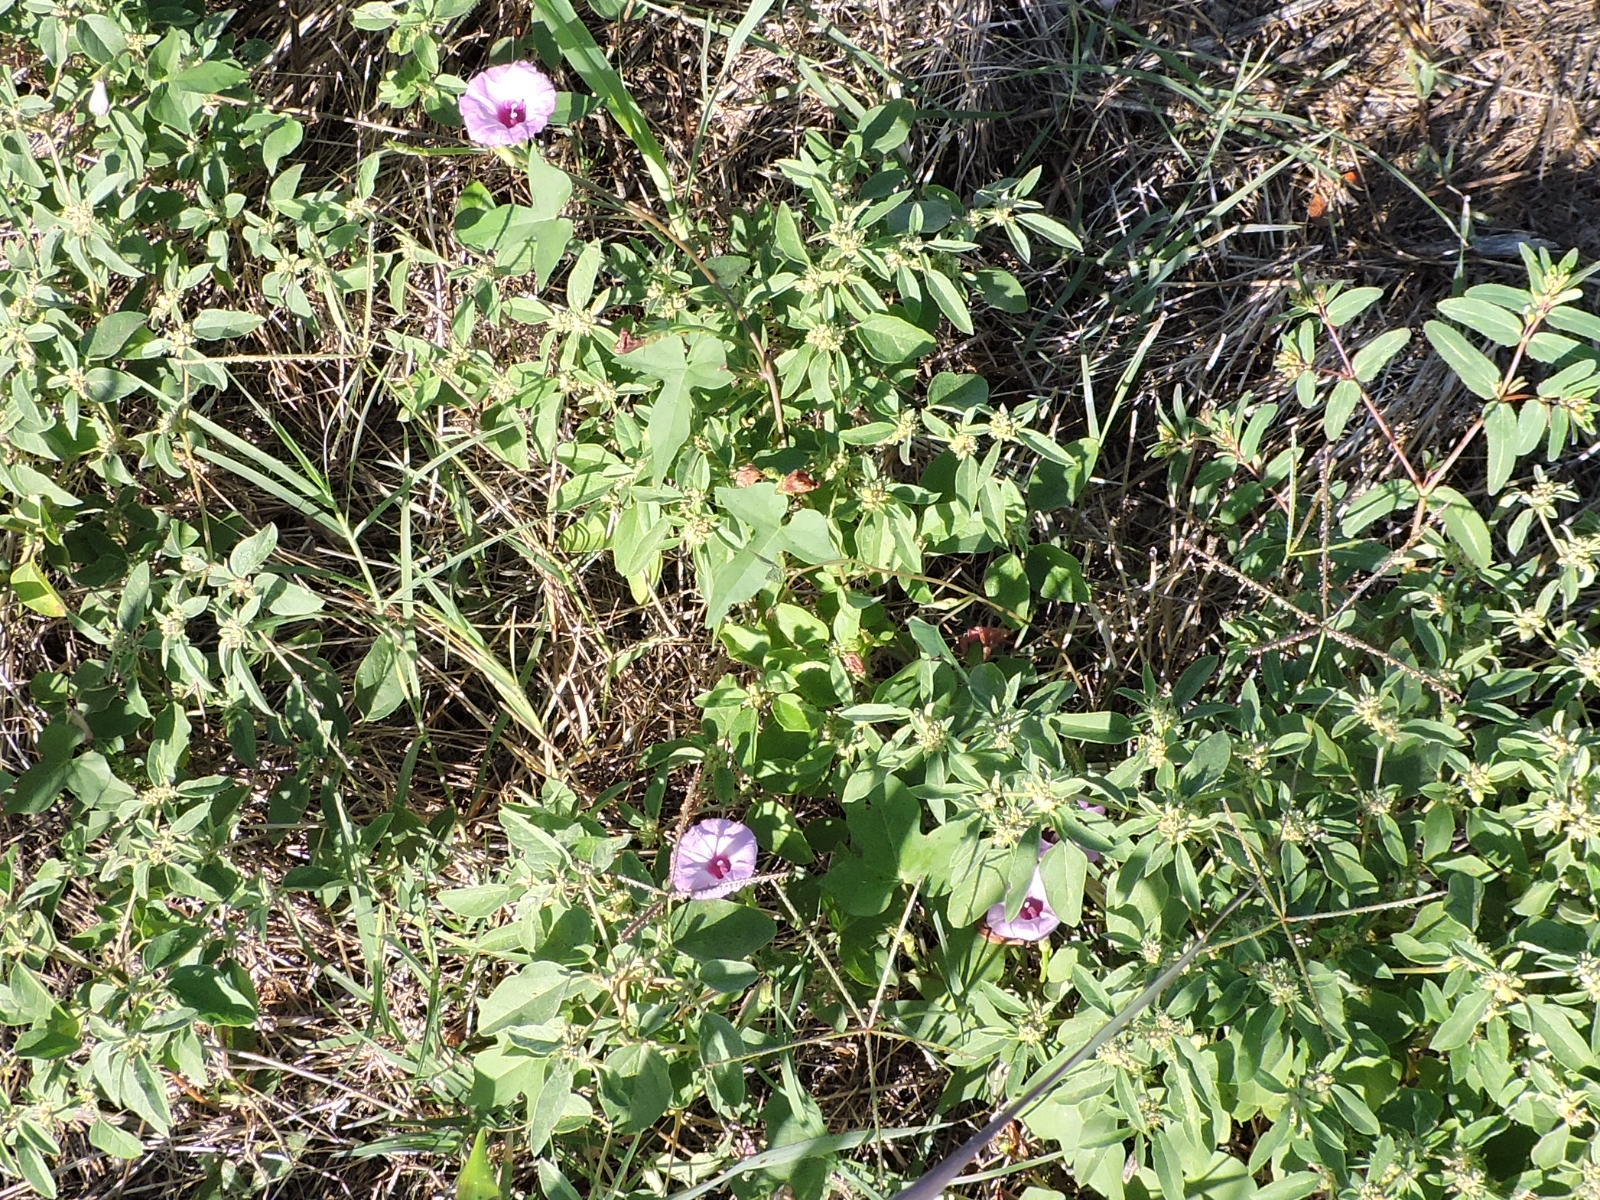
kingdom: Plantae
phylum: Tracheophyta
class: Magnoliopsida
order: Solanales
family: Convolvulaceae
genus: Ipomoea
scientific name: Ipomoea cordatotriloba
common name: Cotton morning glory
